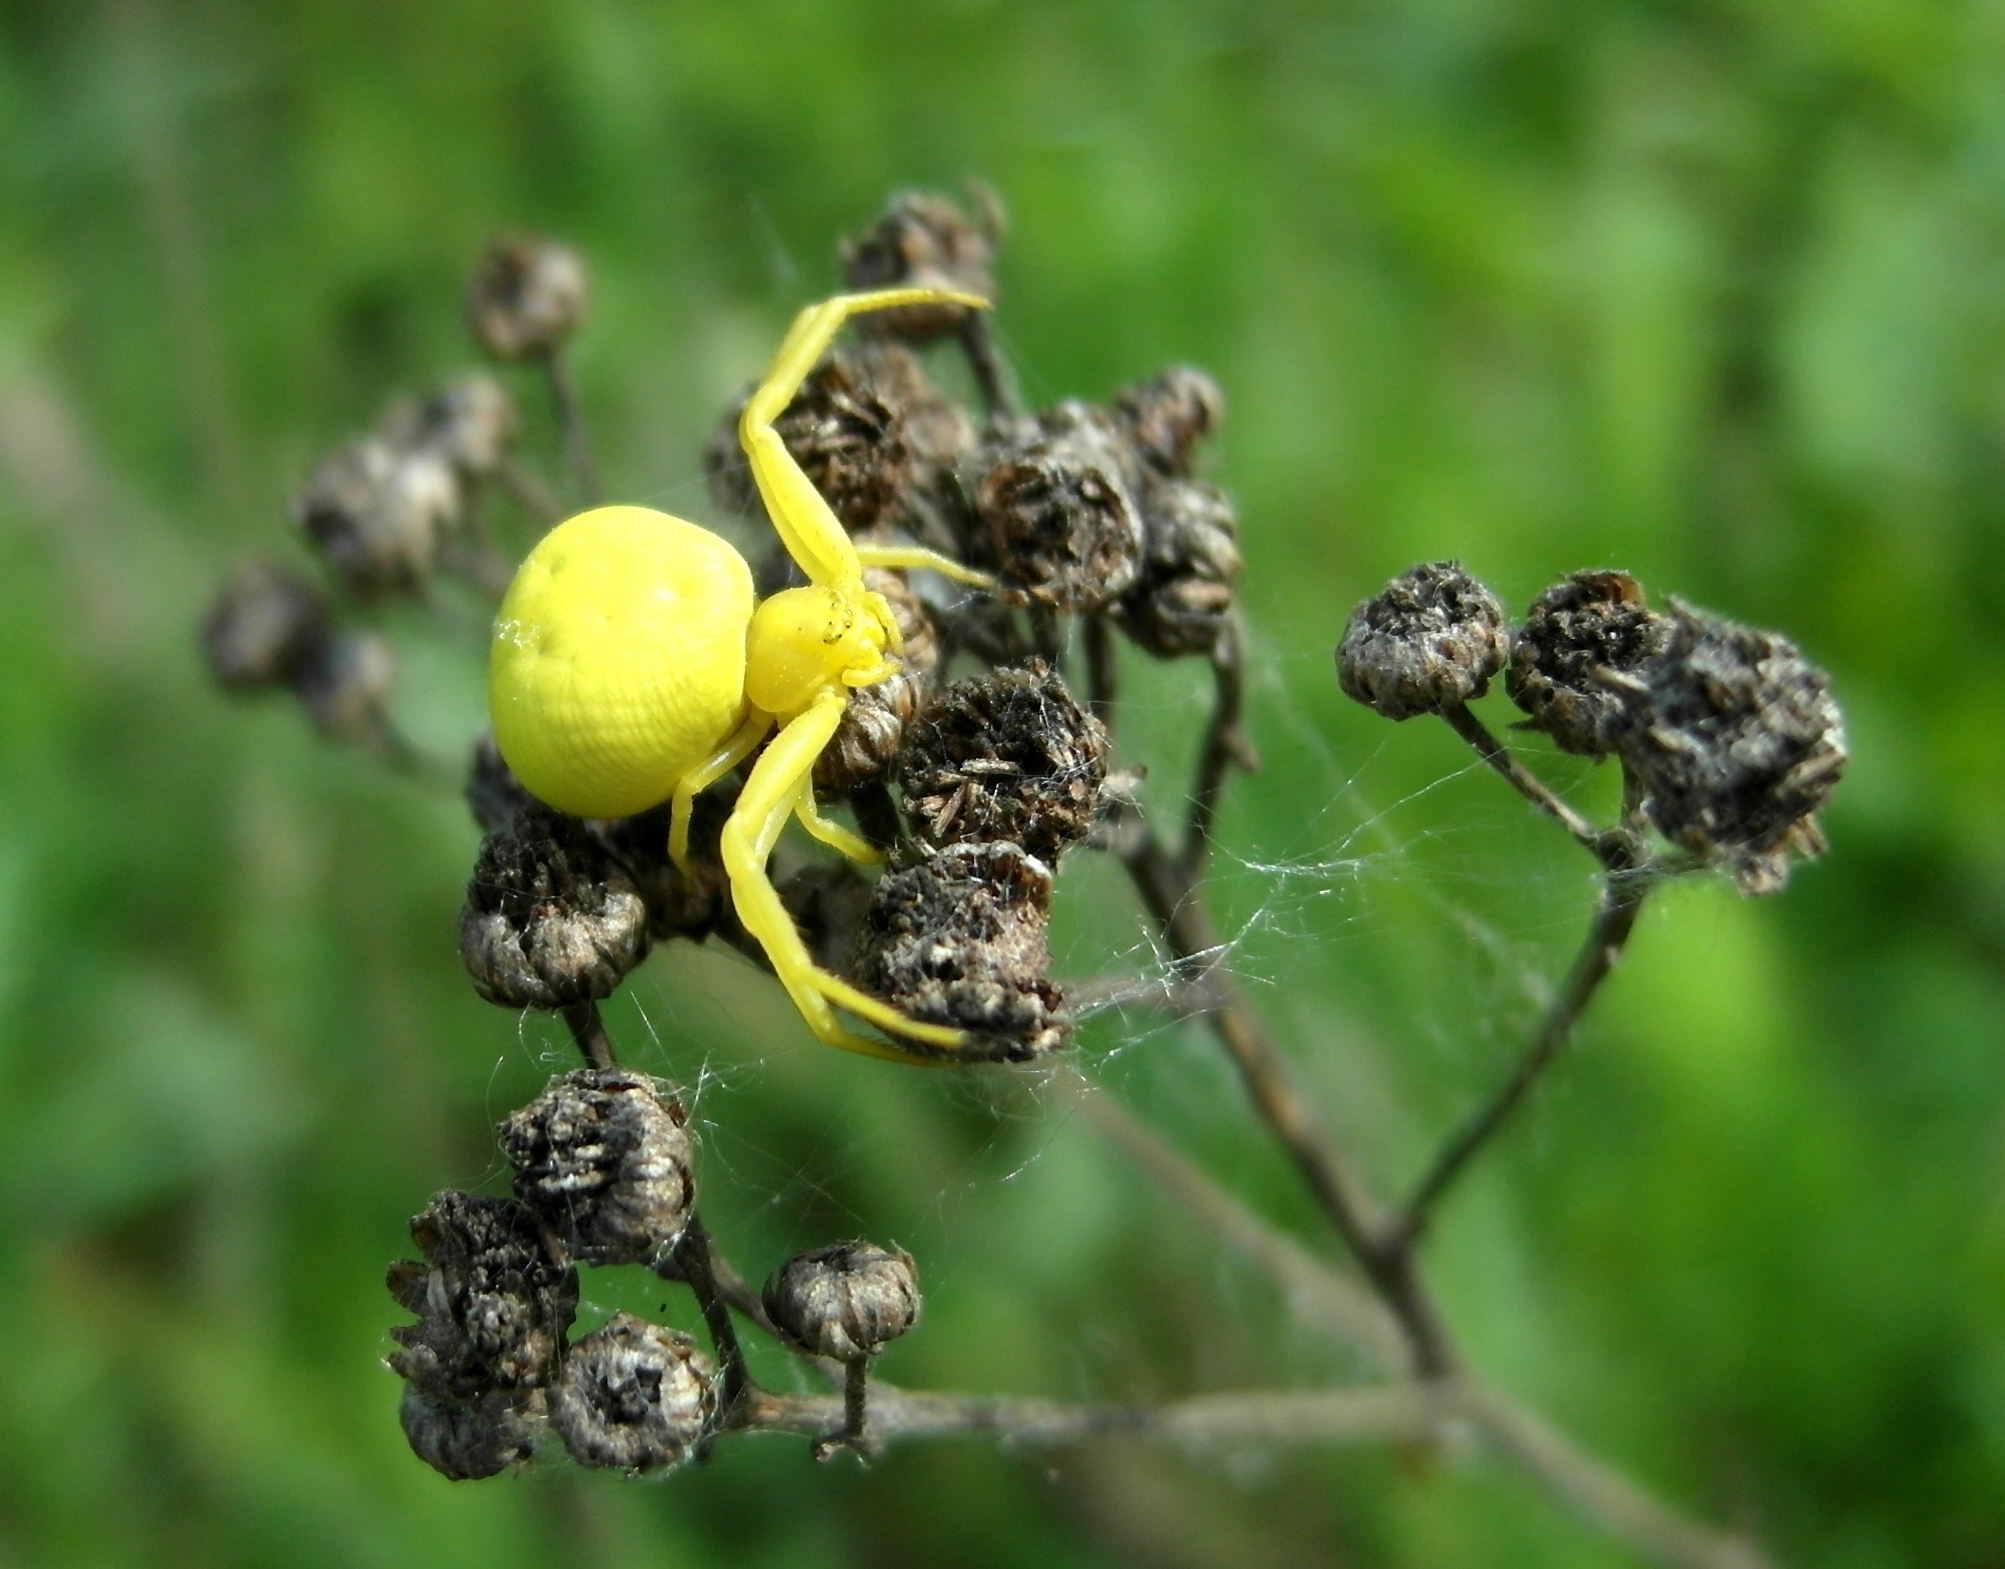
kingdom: Animalia
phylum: Arthropoda
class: Arachnida
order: Araneae
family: Thomisidae
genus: Misumena
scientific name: Misumena vatia
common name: Goldenrod crab spider
